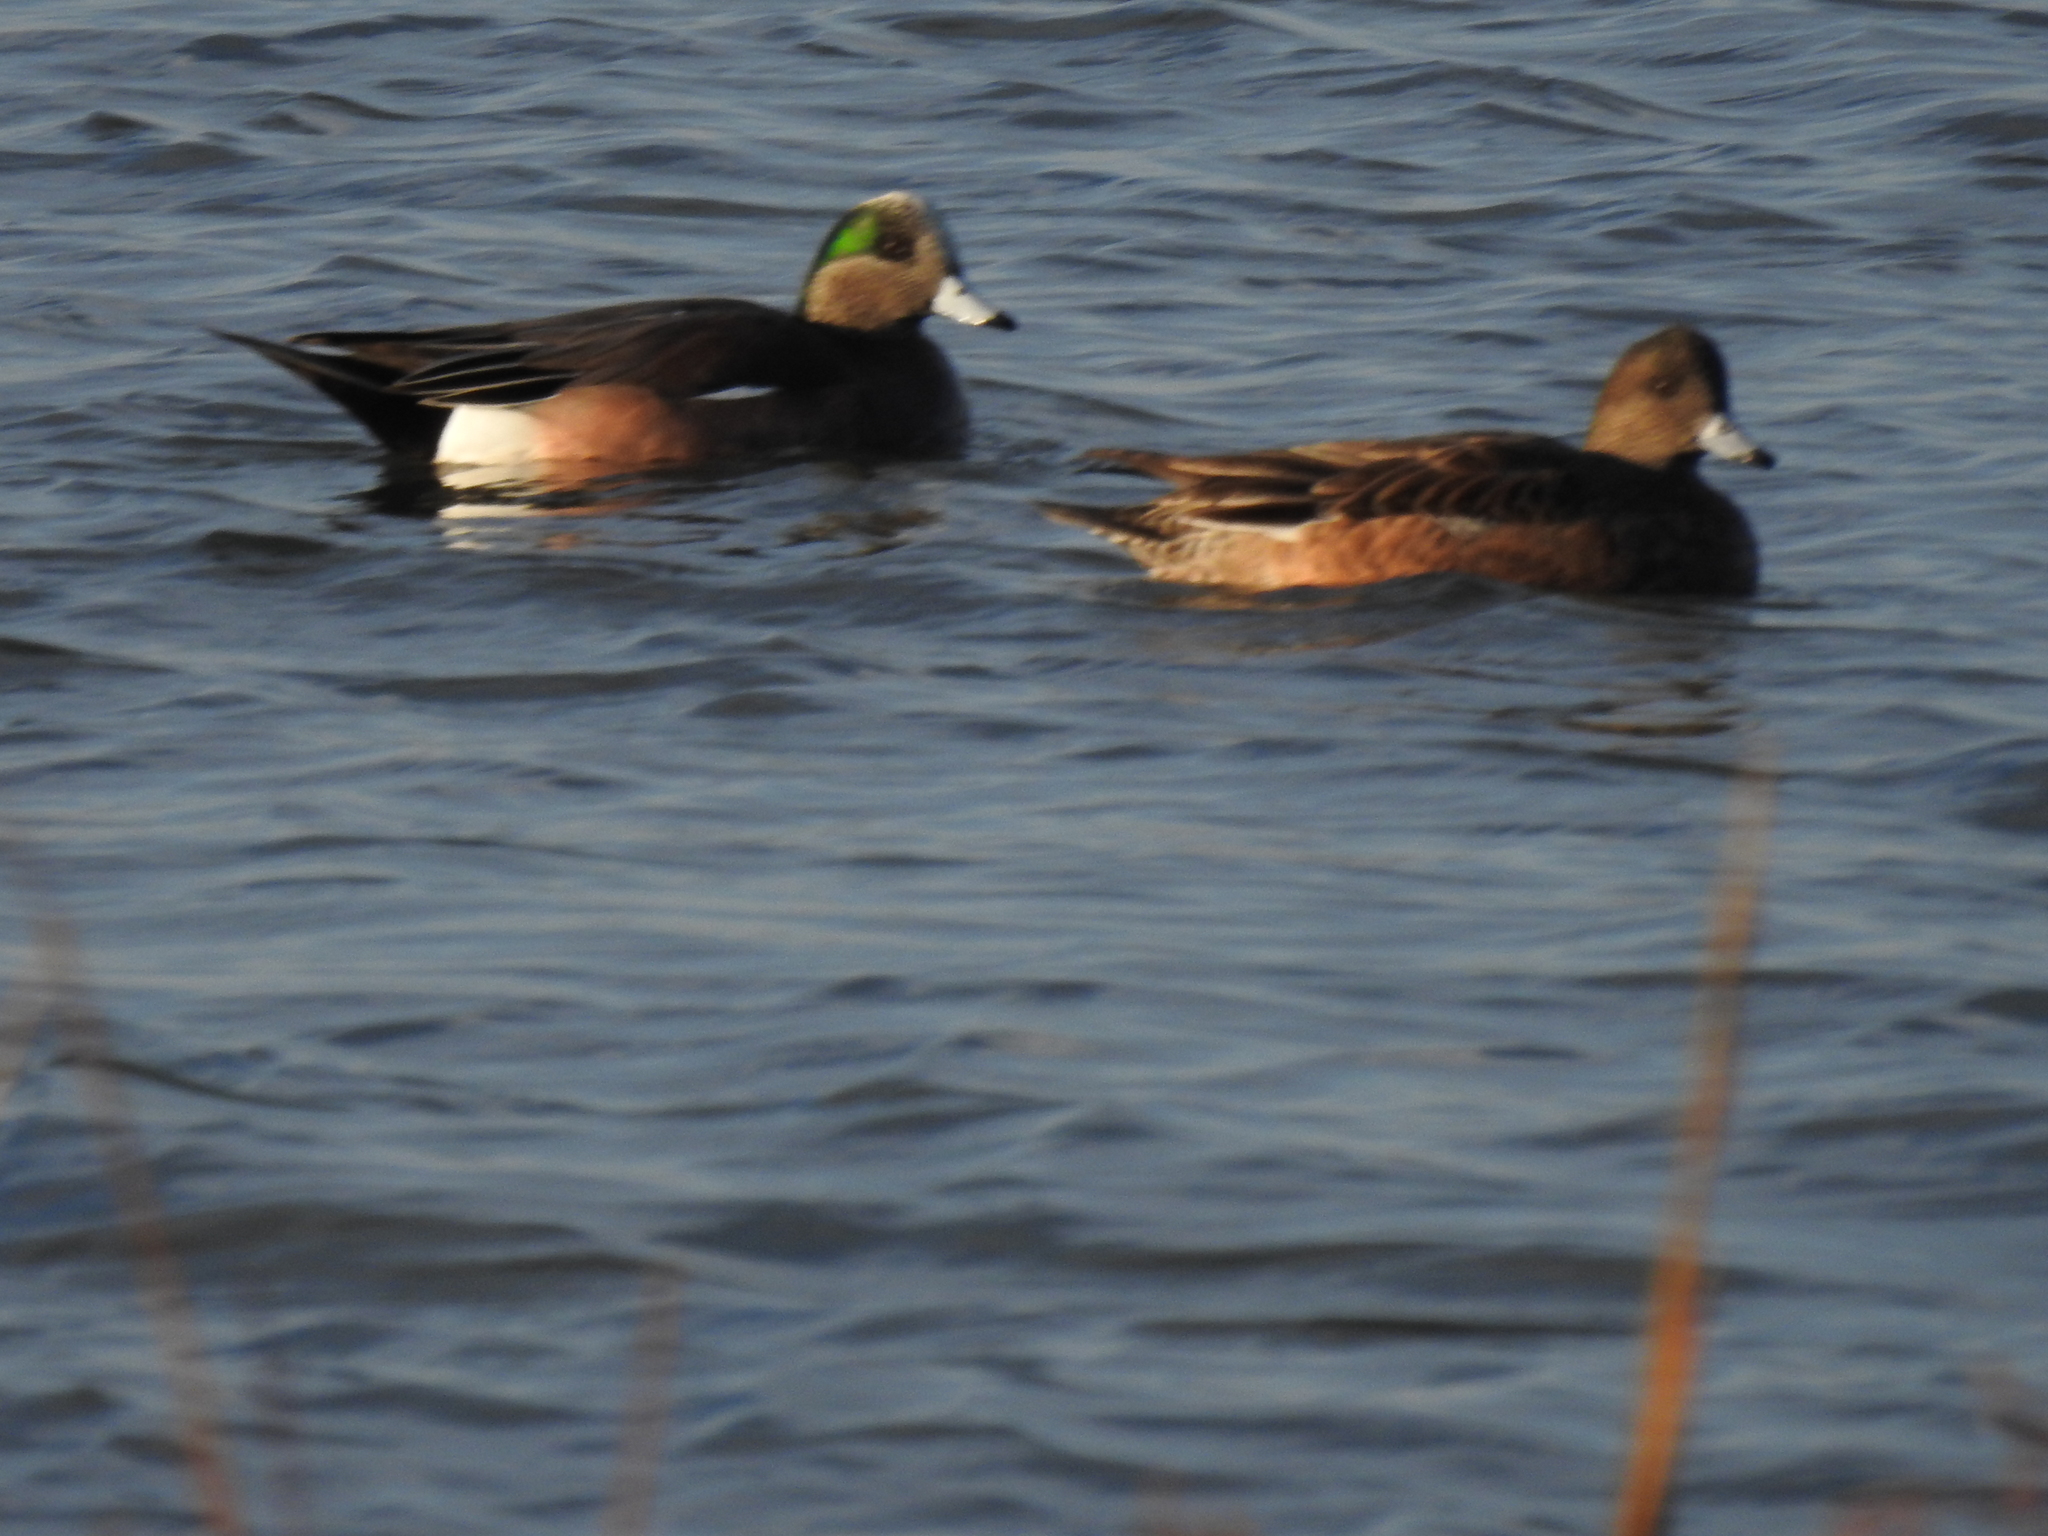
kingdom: Animalia
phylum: Chordata
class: Aves
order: Anseriformes
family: Anatidae
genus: Mareca
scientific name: Mareca americana
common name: American wigeon
